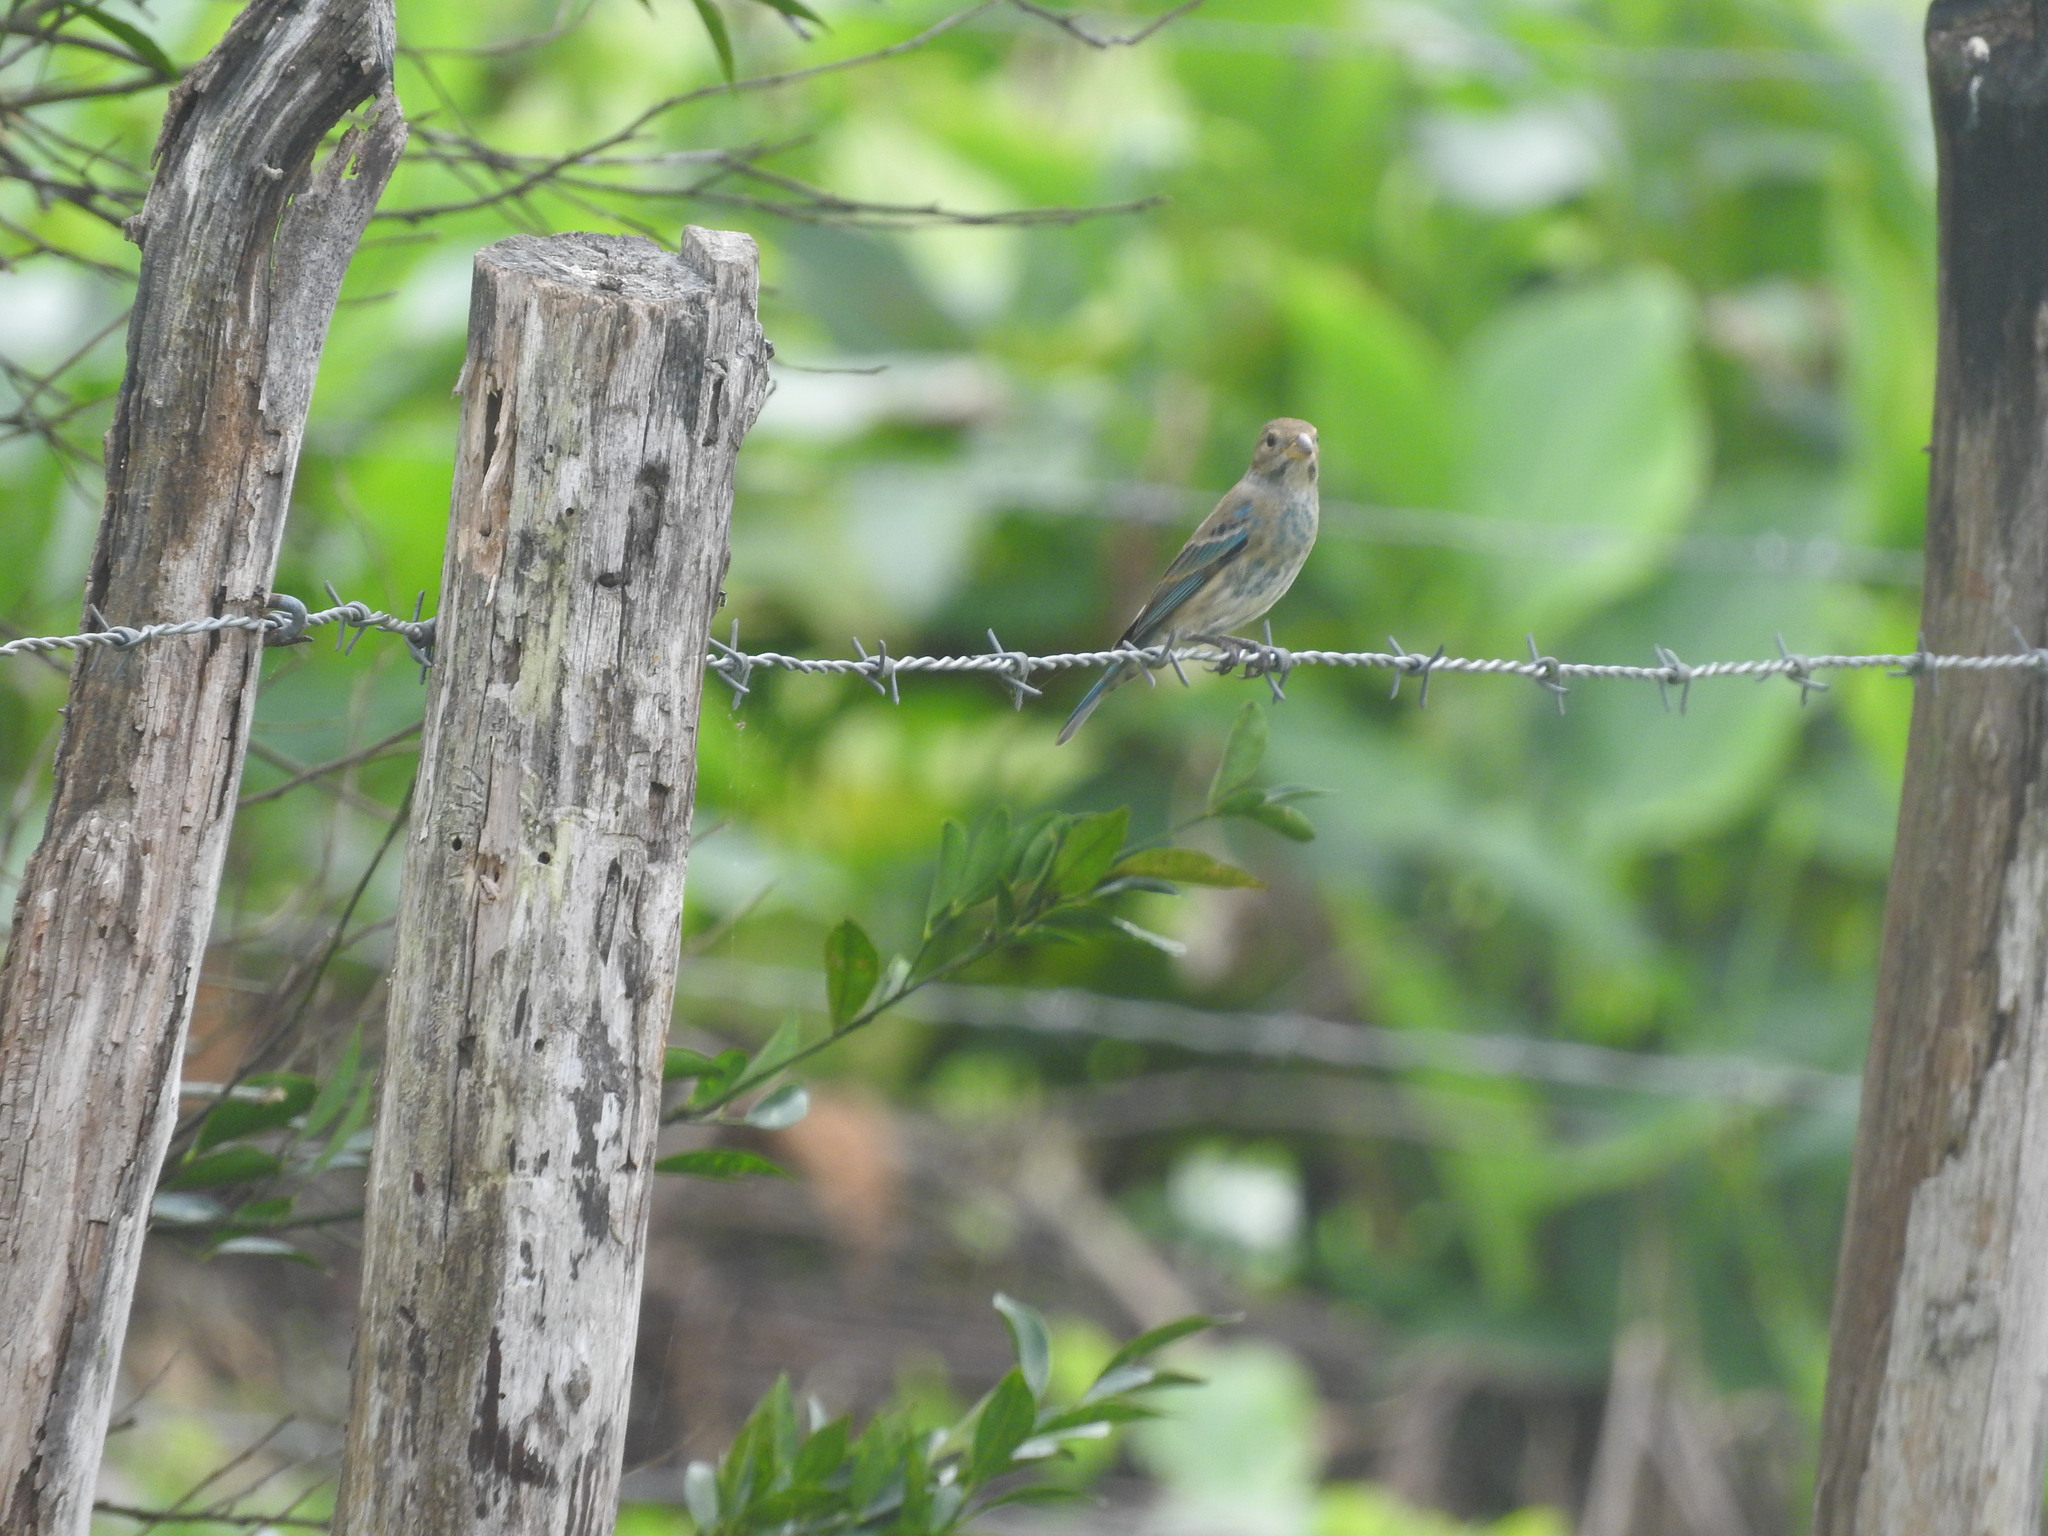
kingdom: Animalia
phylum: Chordata
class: Aves
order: Passeriformes
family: Cardinalidae
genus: Passerina
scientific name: Passerina cyanea
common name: Indigo bunting
